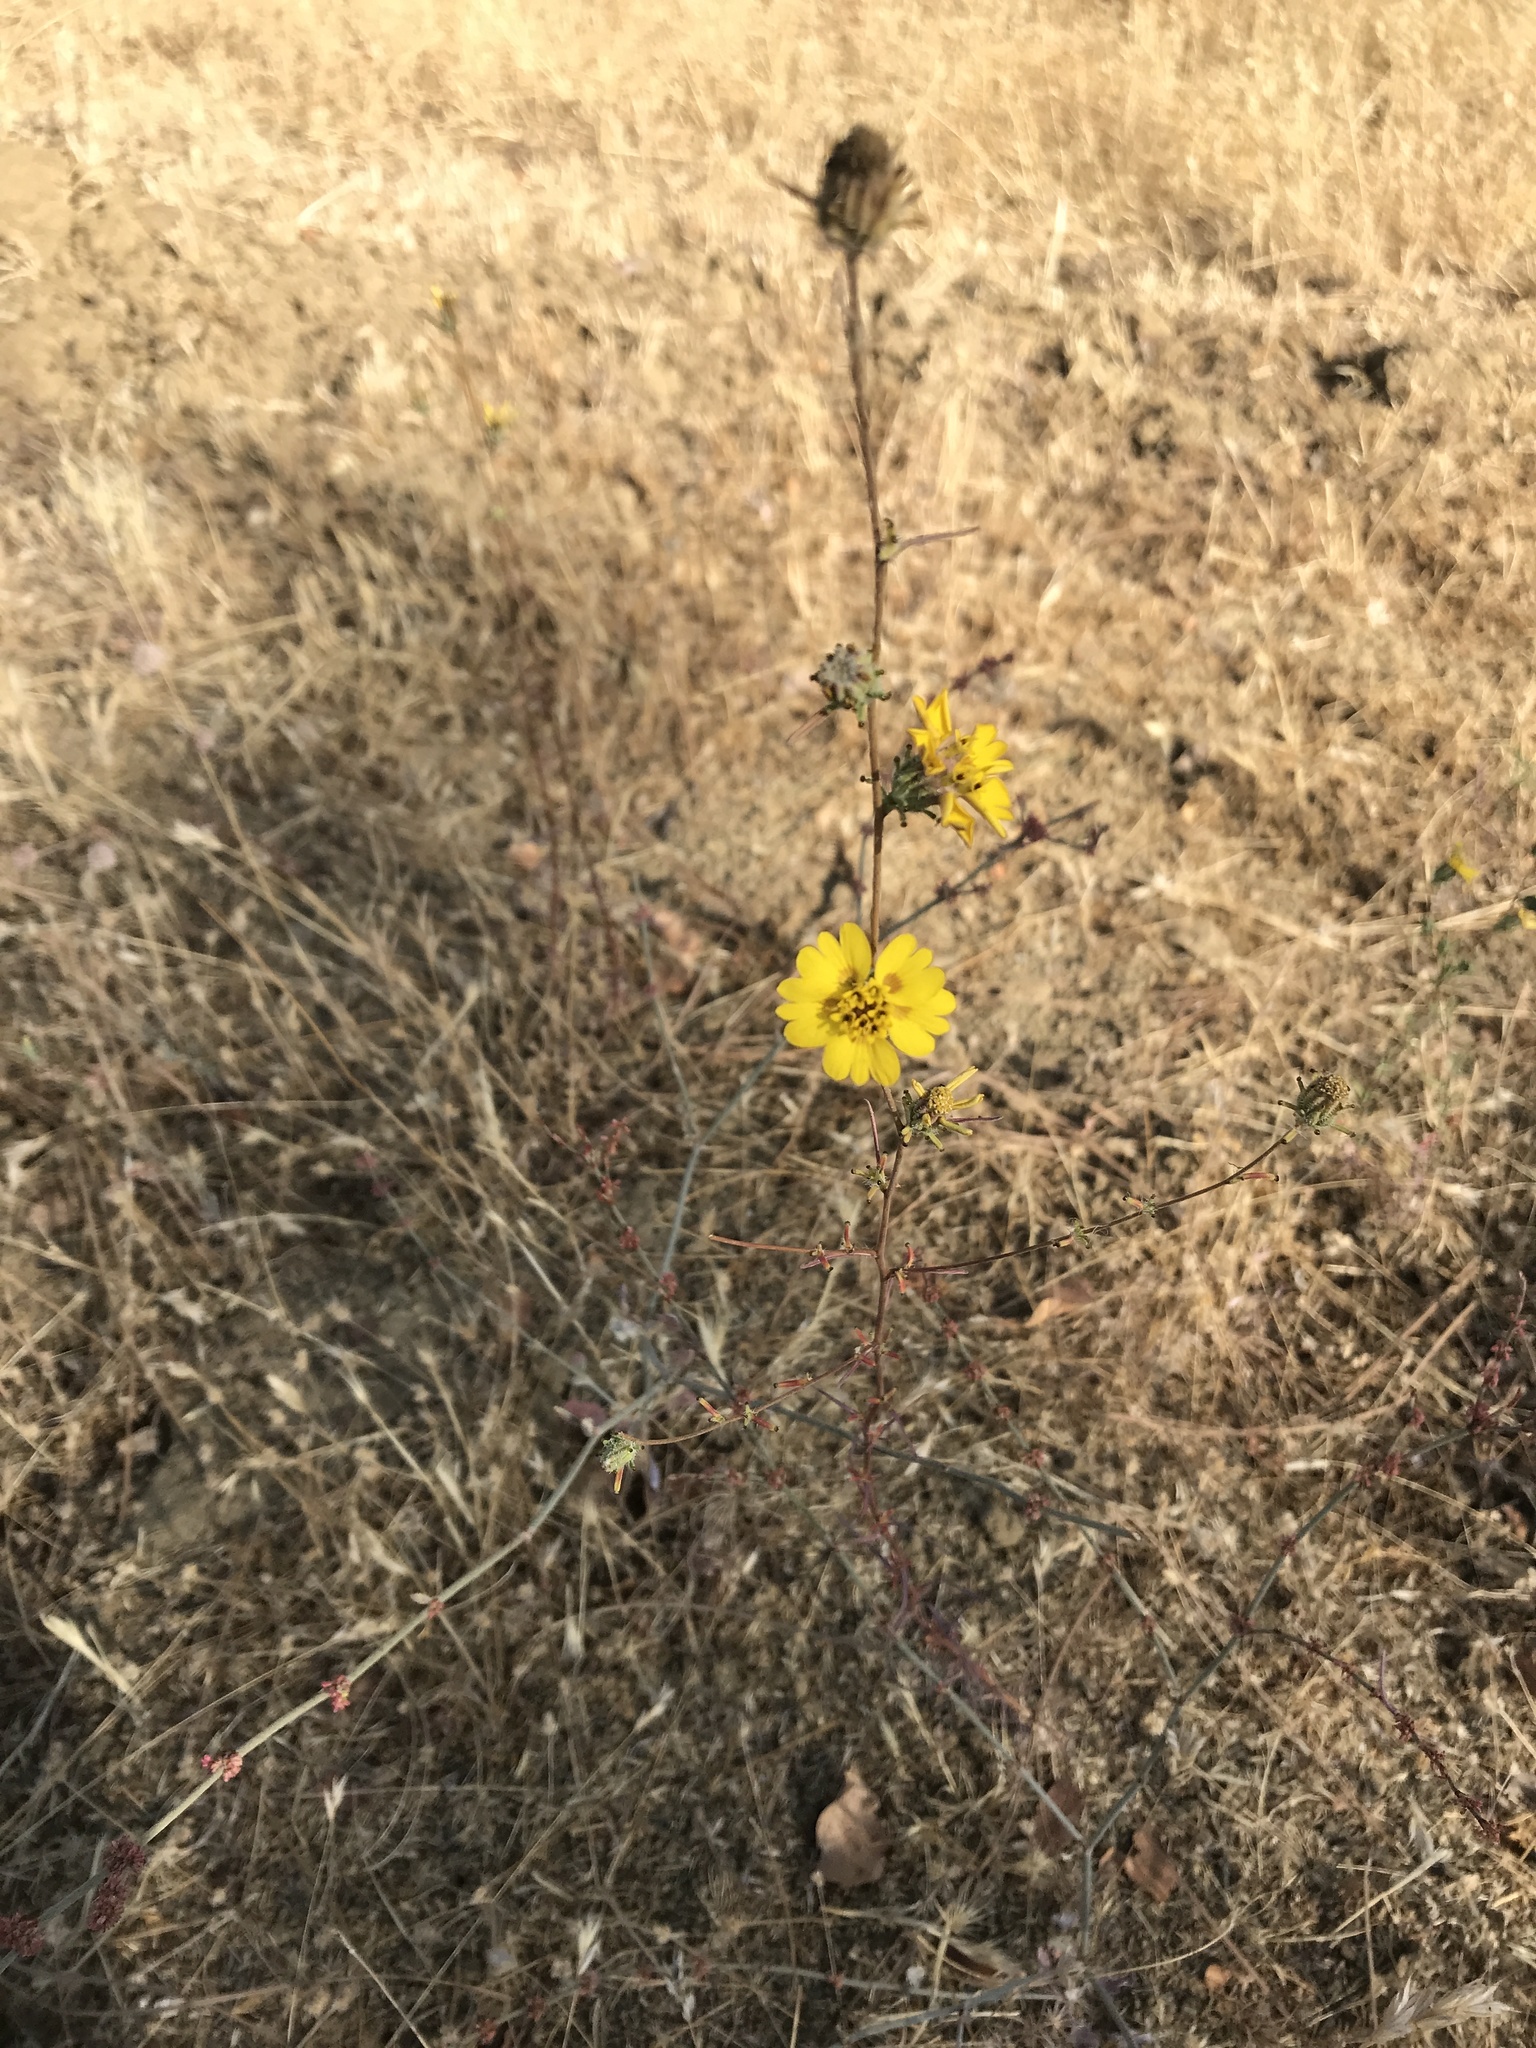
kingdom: Plantae
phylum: Tracheophyta
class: Magnoliopsida
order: Asterales
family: Asteraceae
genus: Calycadenia
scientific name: Calycadenia truncata
